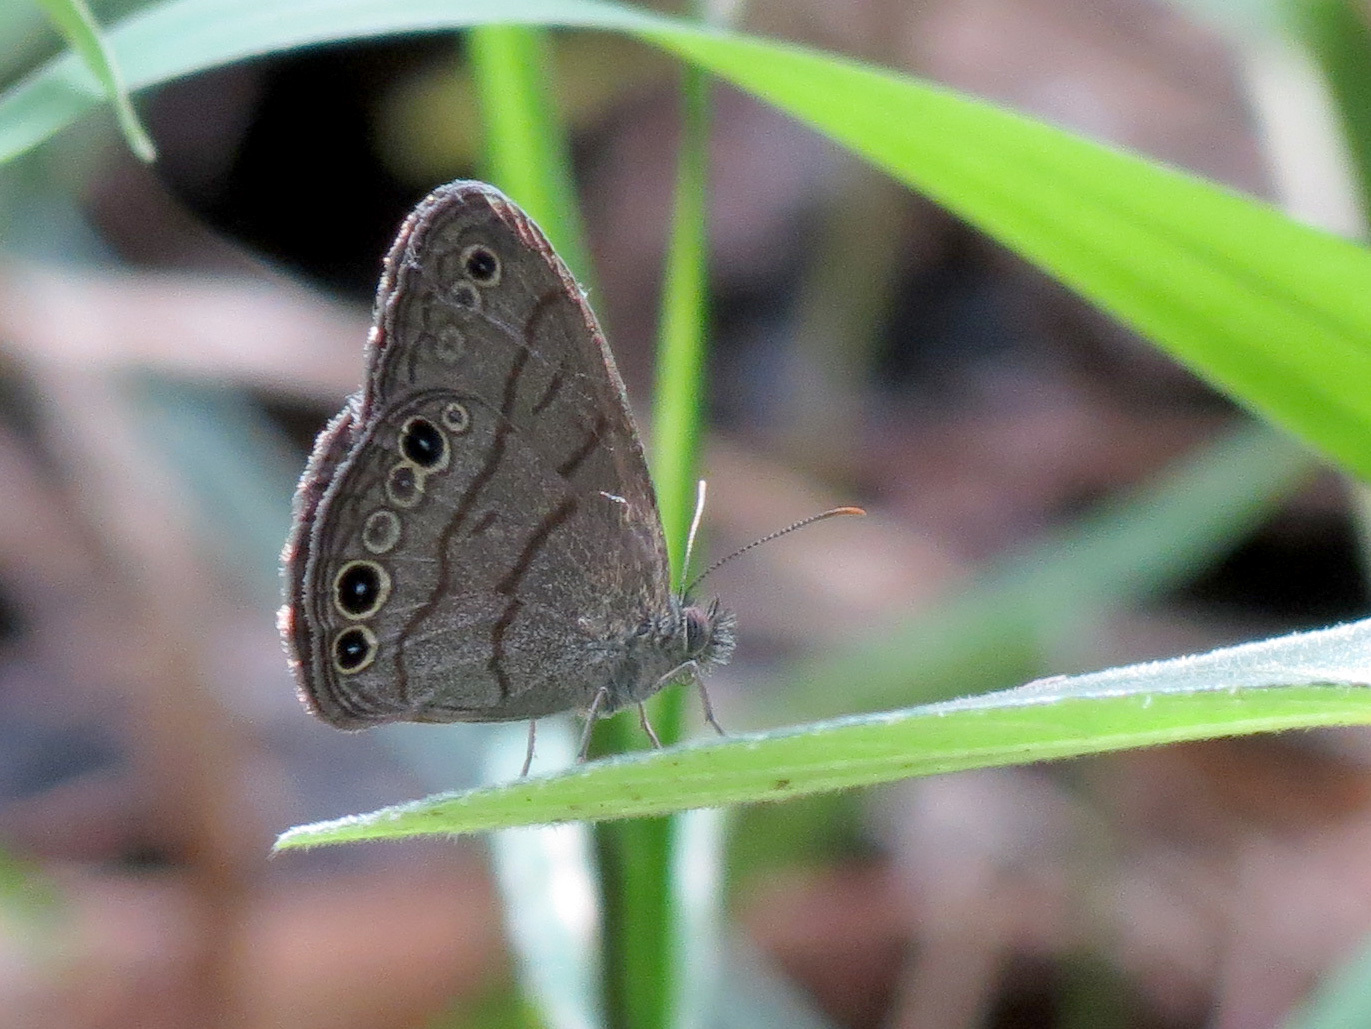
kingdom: Animalia
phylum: Arthropoda
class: Insecta
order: Lepidoptera
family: Nymphalidae
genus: Hermeuptychia
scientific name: Hermeuptychia intricata
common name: Intricate satyr
